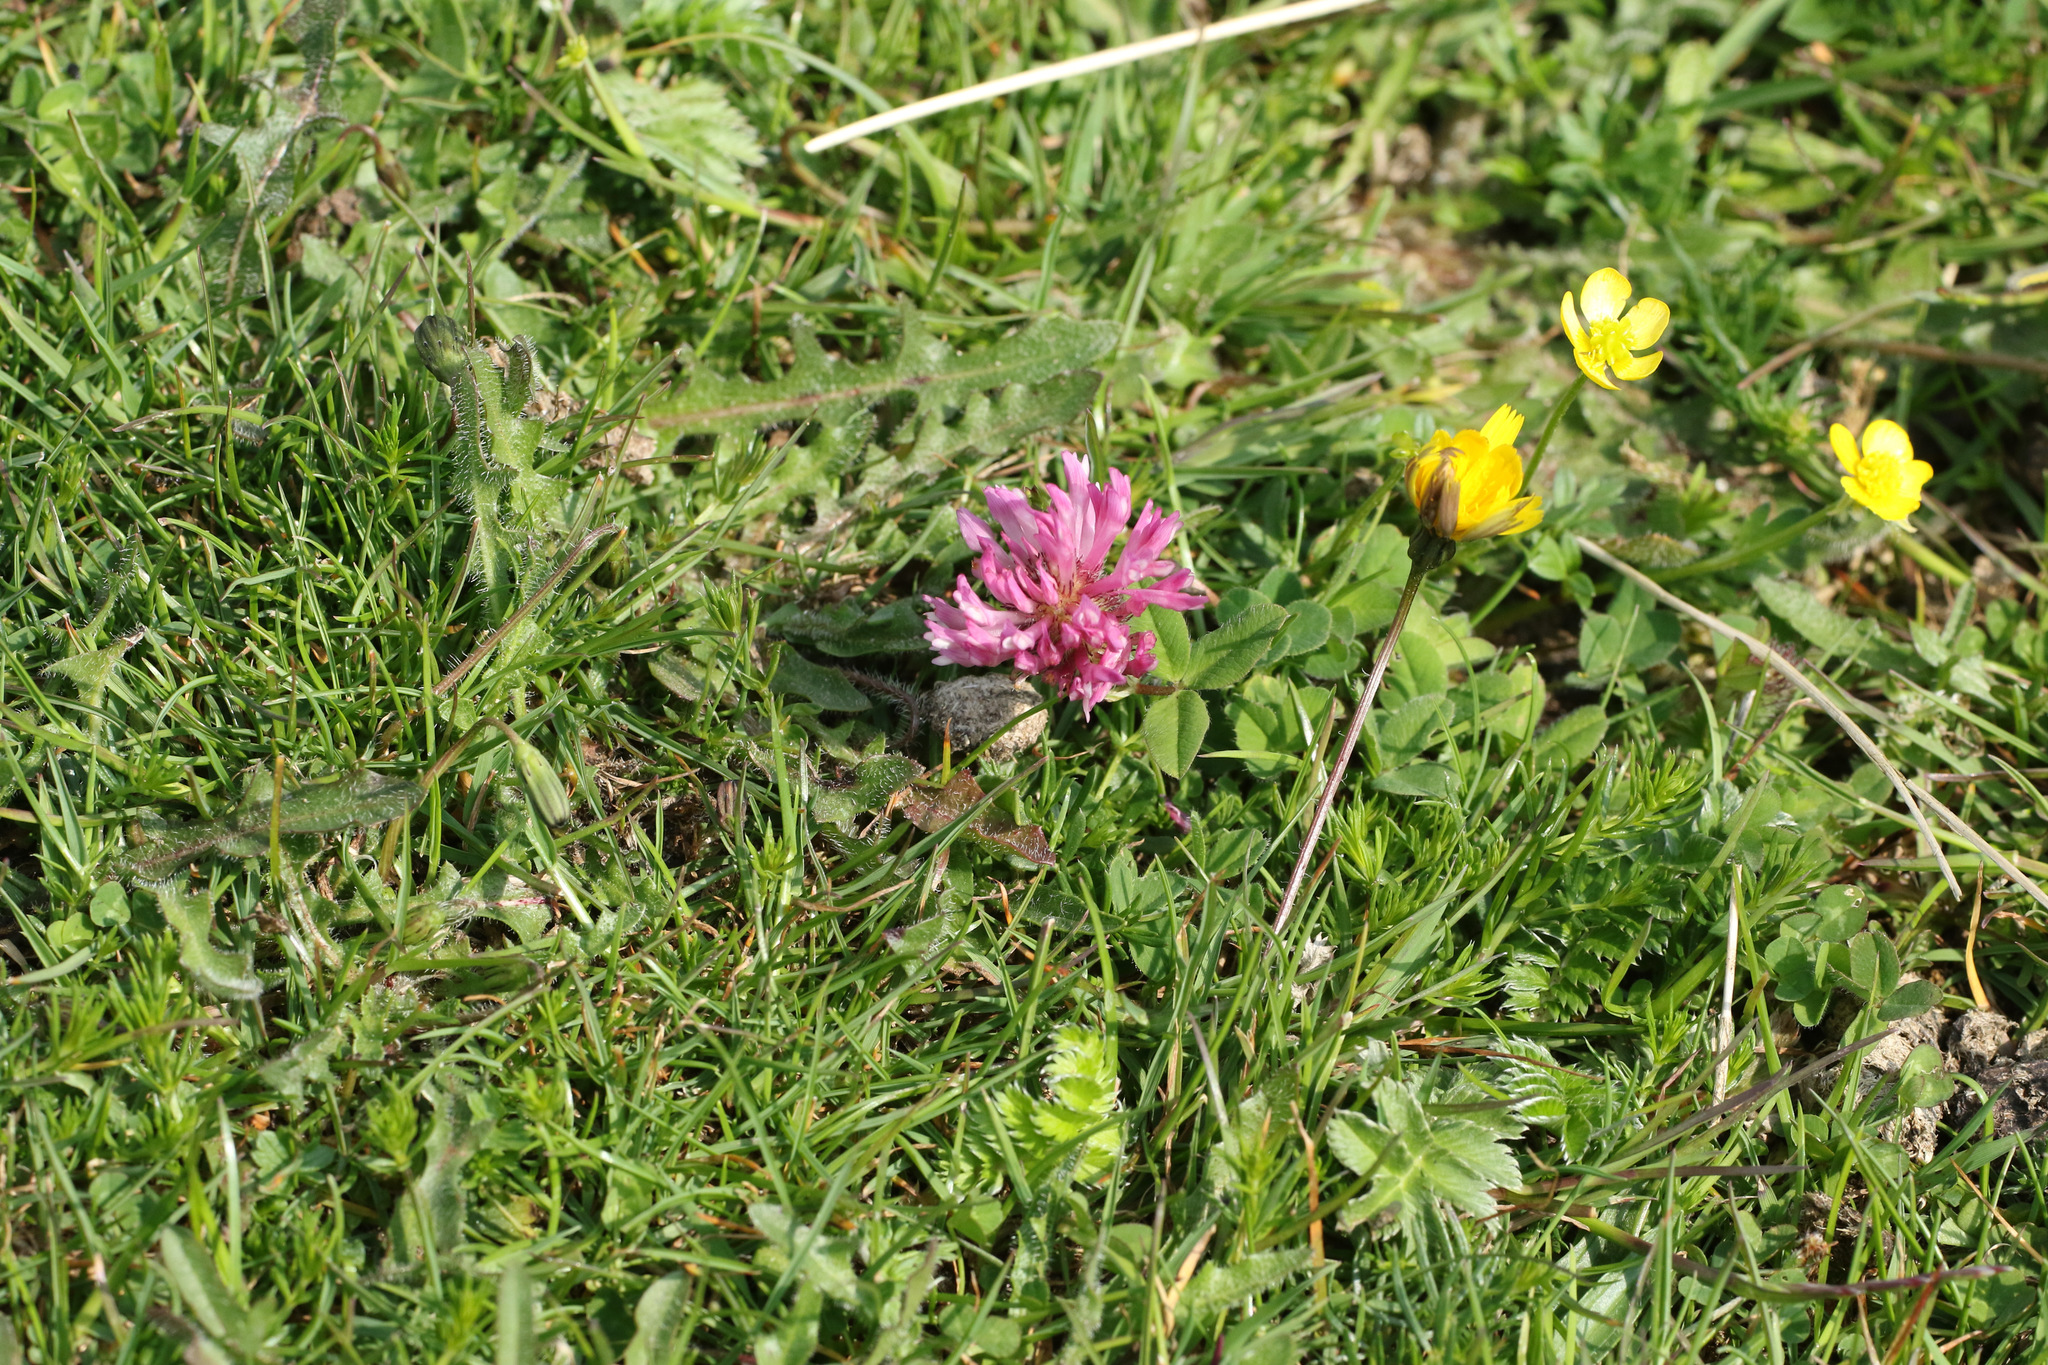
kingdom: Plantae
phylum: Tracheophyta
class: Magnoliopsida
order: Fabales
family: Fabaceae
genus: Trifolium
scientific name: Trifolium pratense
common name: Red clover
